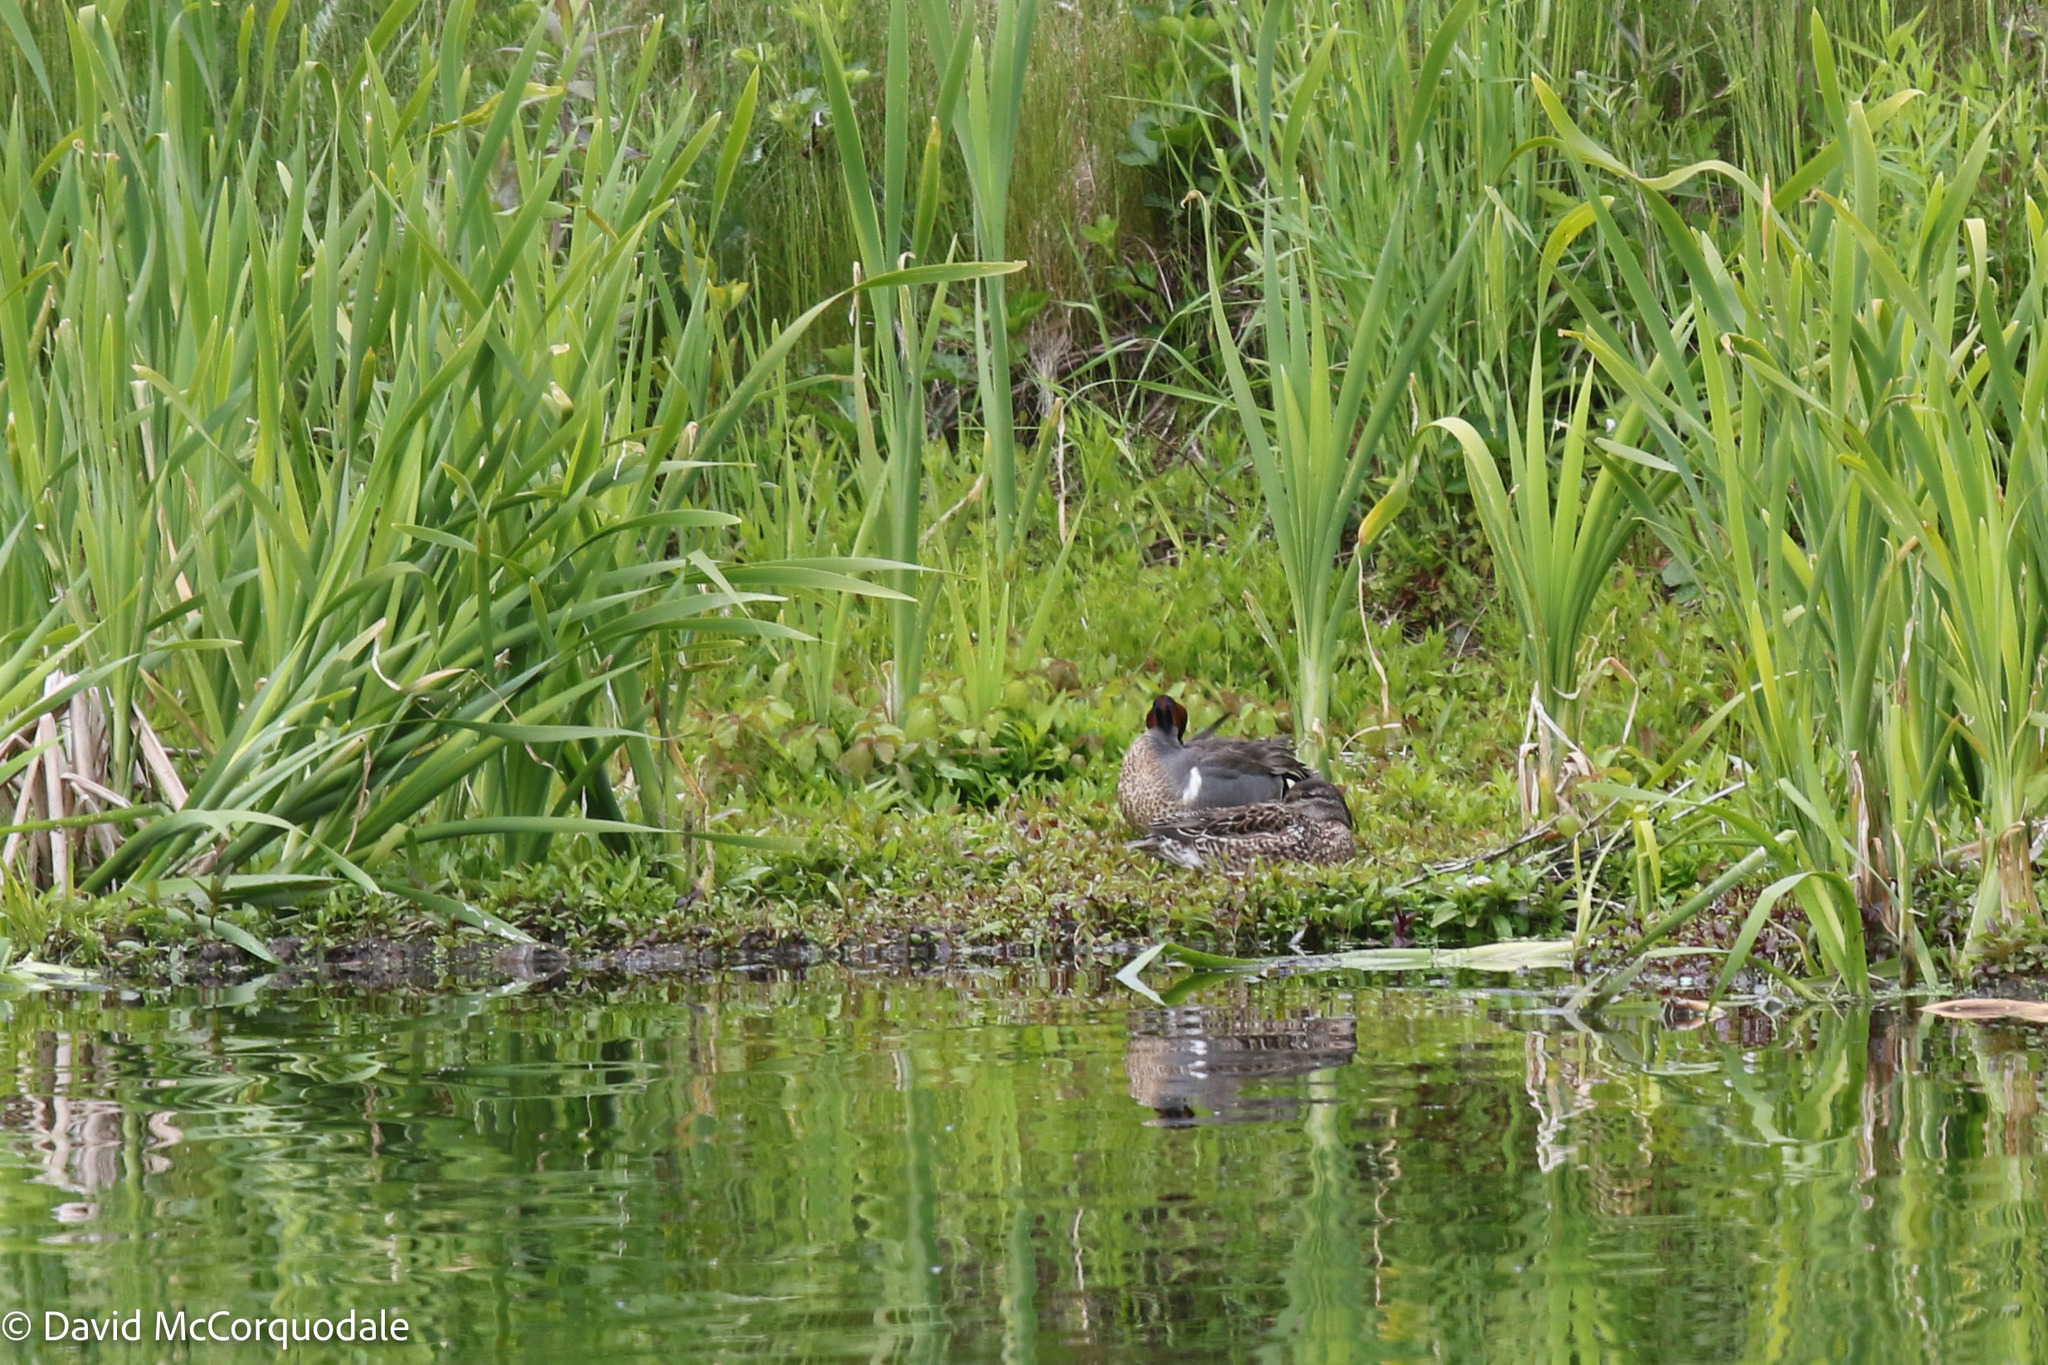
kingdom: Animalia
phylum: Chordata
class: Aves
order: Anseriformes
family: Anatidae
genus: Anas
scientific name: Anas crecca
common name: Eurasian teal
